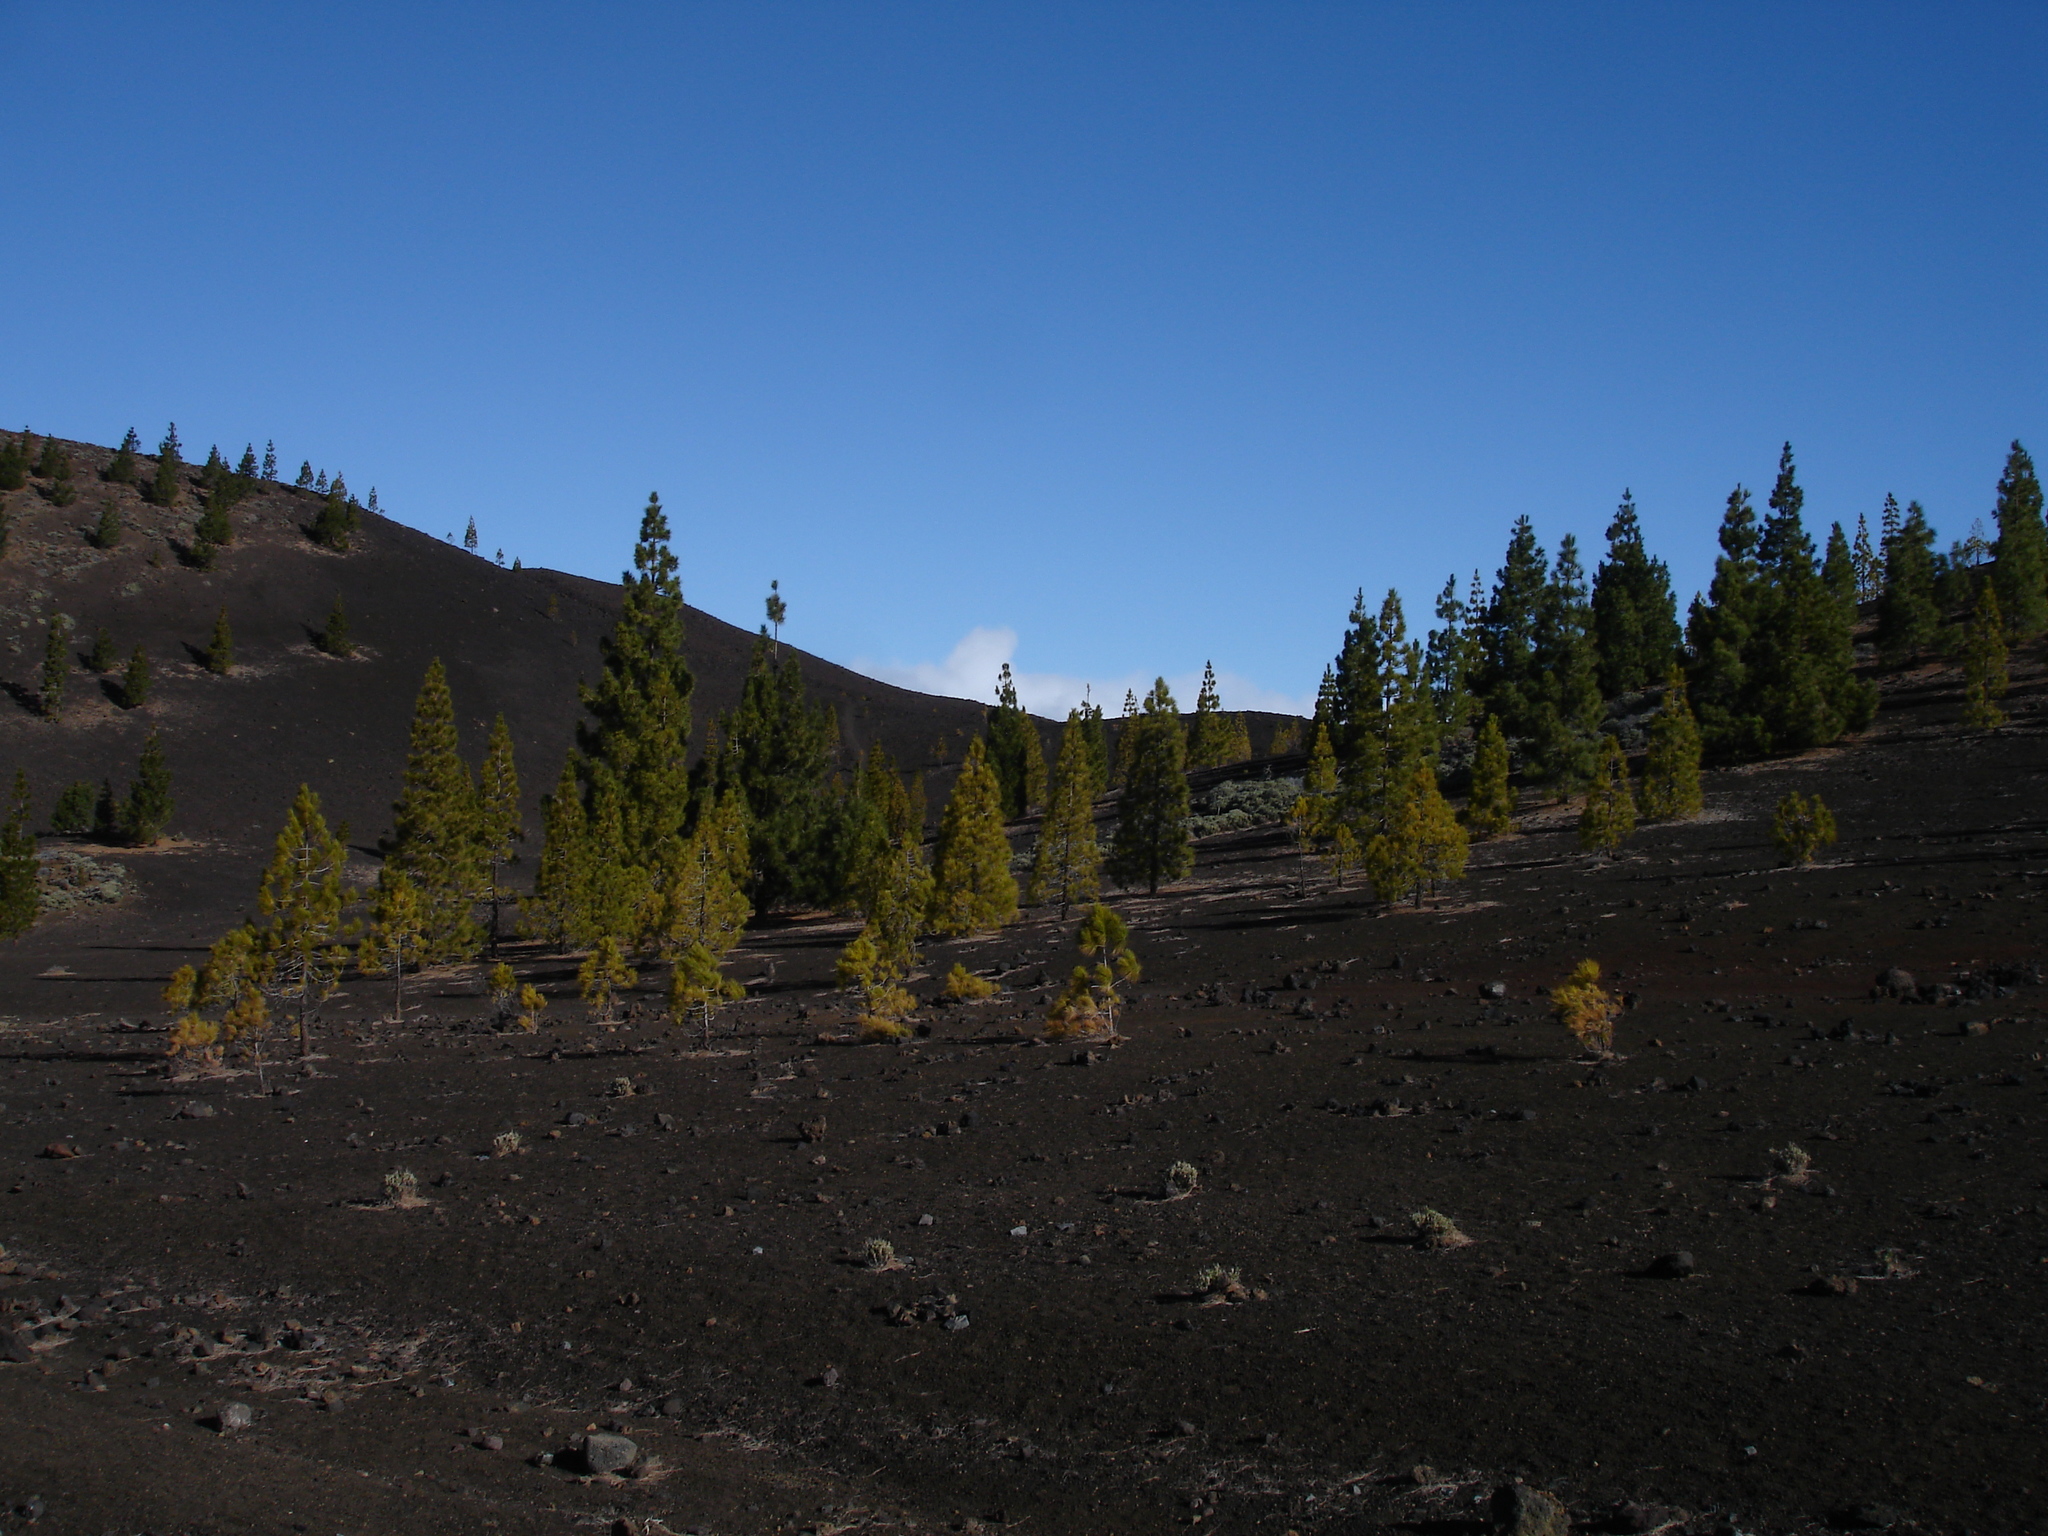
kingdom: Plantae
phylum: Tracheophyta
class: Pinopsida
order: Pinales
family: Pinaceae
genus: Pinus
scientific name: Pinus canariensis
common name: Canary islands pine
